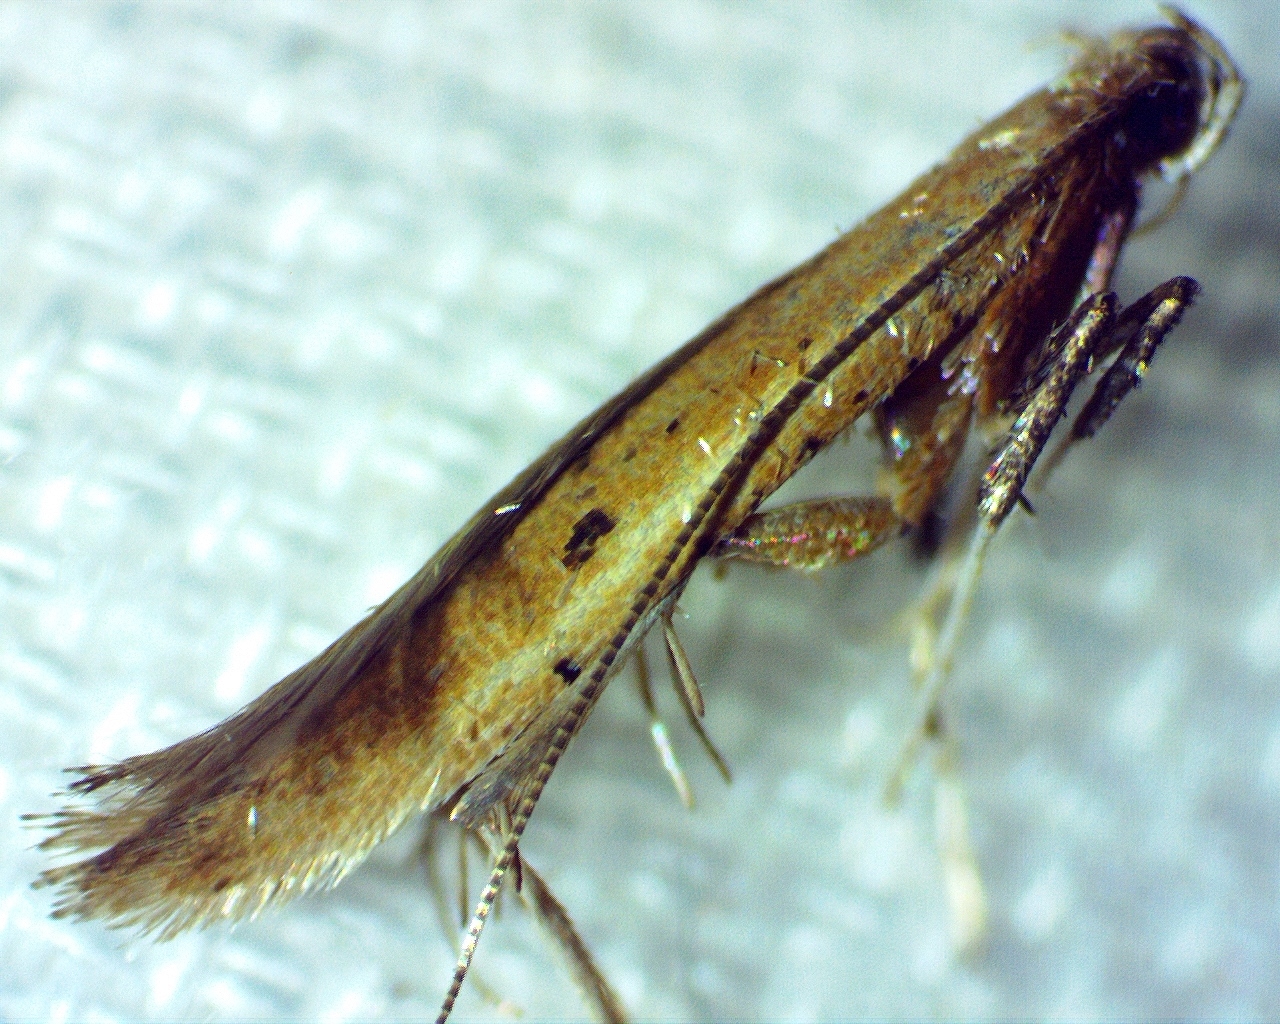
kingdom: Animalia
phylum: Arthropoda
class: Insecta
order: Lepidoptera
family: Gracillariidae
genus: Caloptilia
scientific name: Caloptilia violacella
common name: Tick-trefoil caloptilia moth
